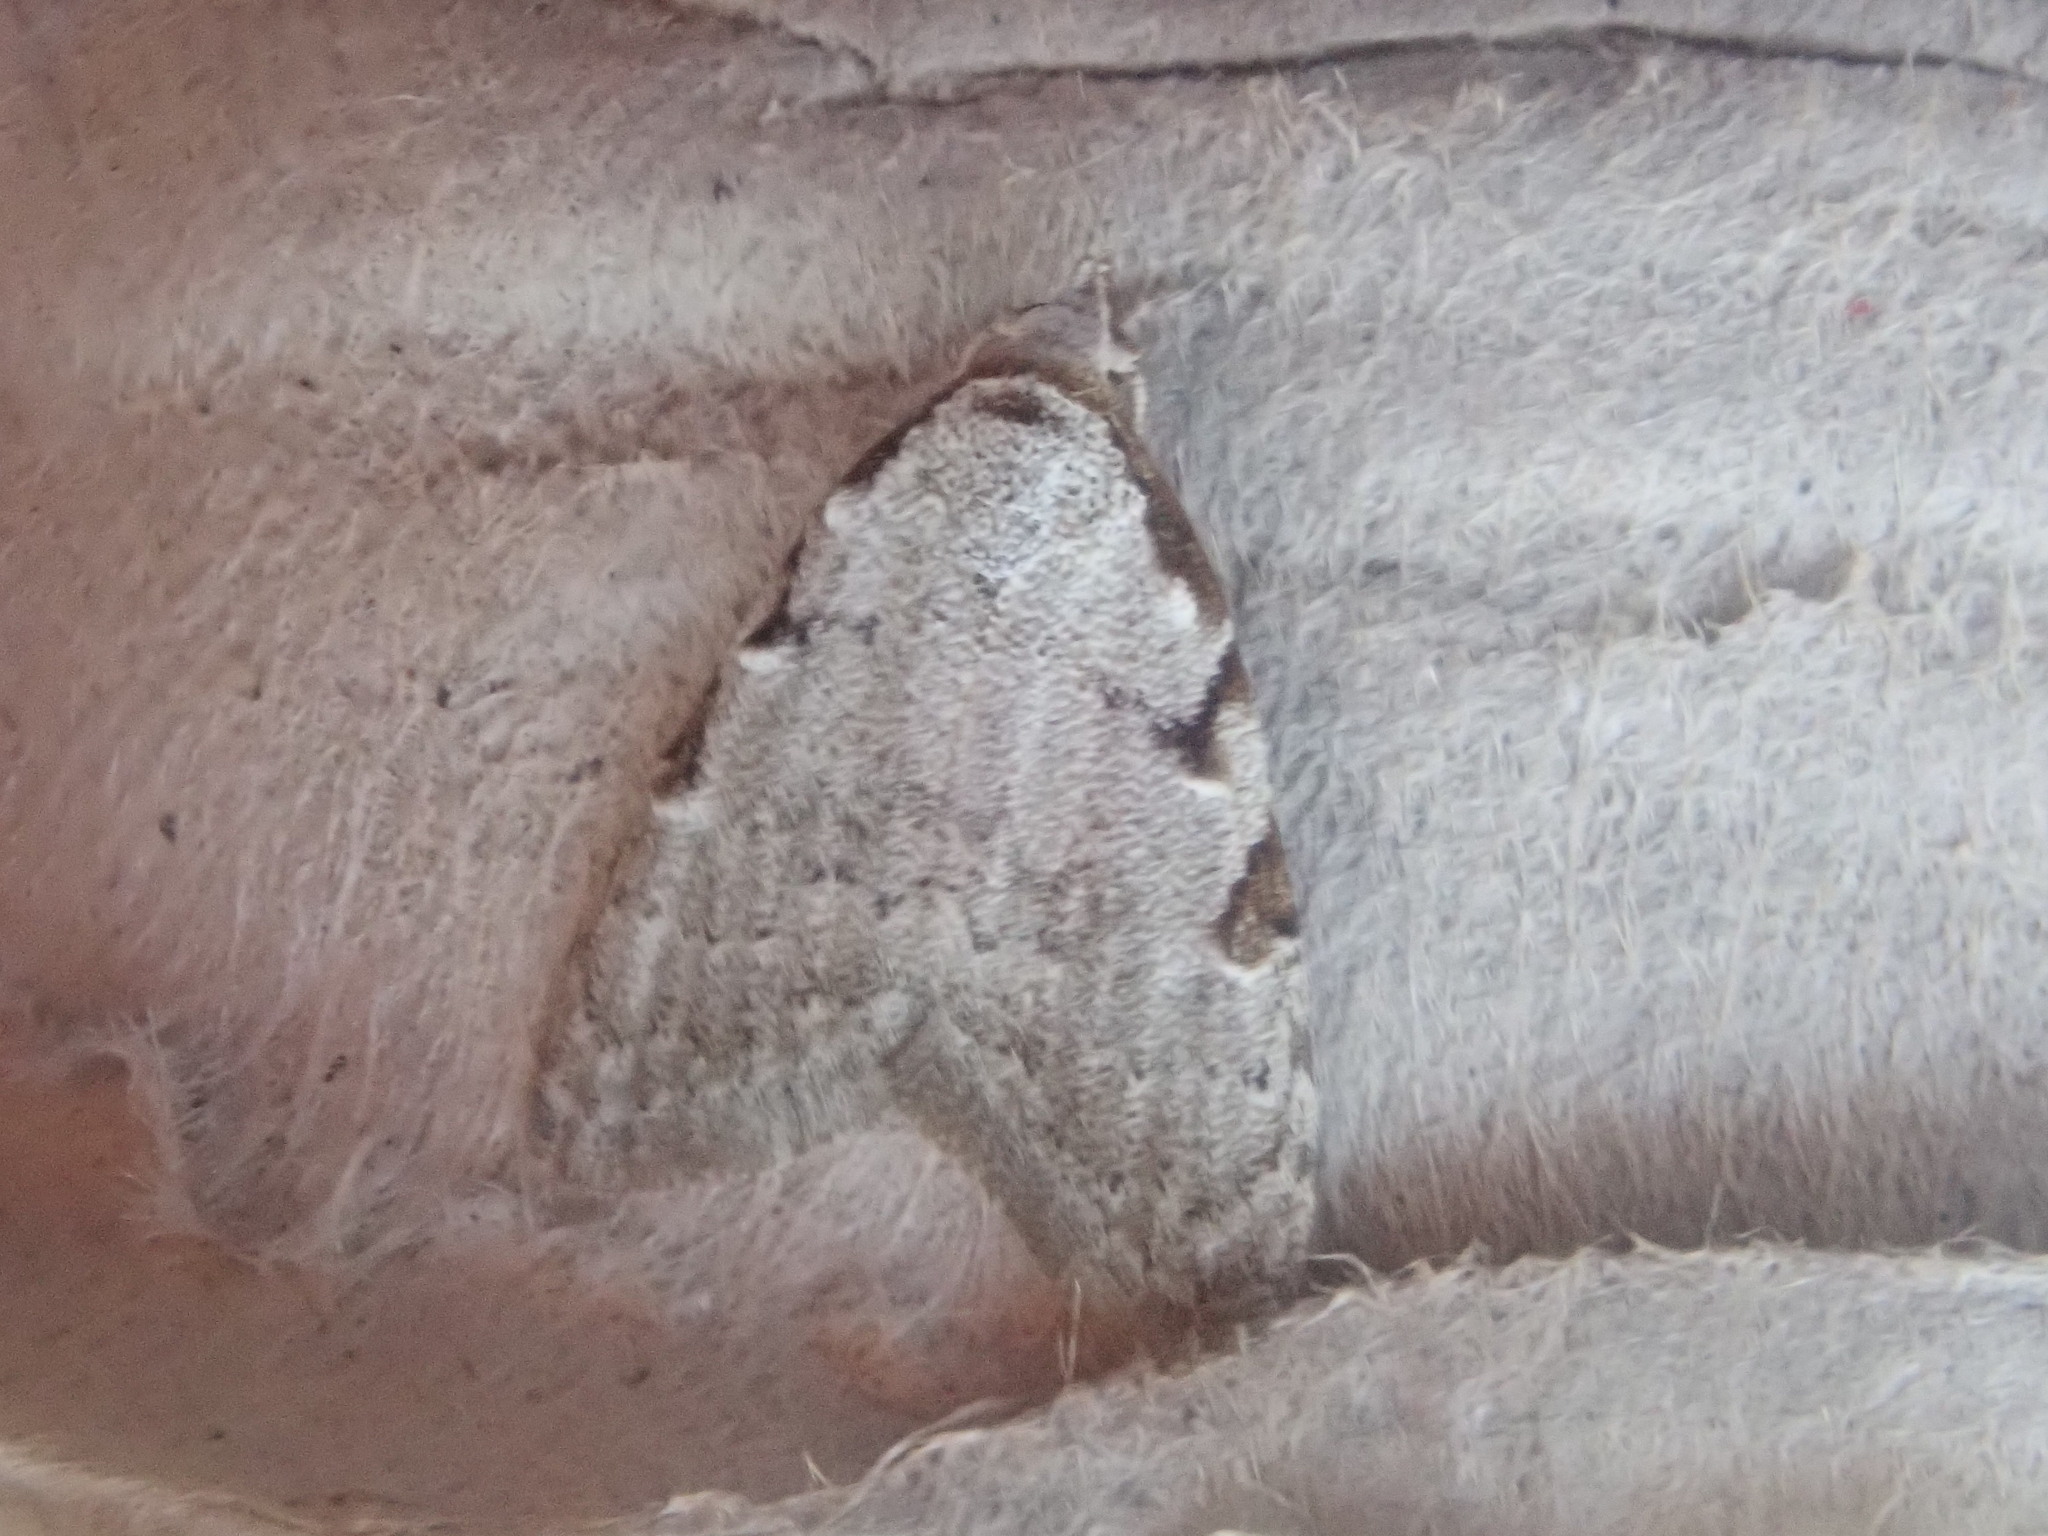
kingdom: Animalia
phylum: Arthropoda
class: Insecta
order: Lepidoptera
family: Nolidae
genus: Nola
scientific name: Nola triquetrana
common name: Three-spotted nola moth
